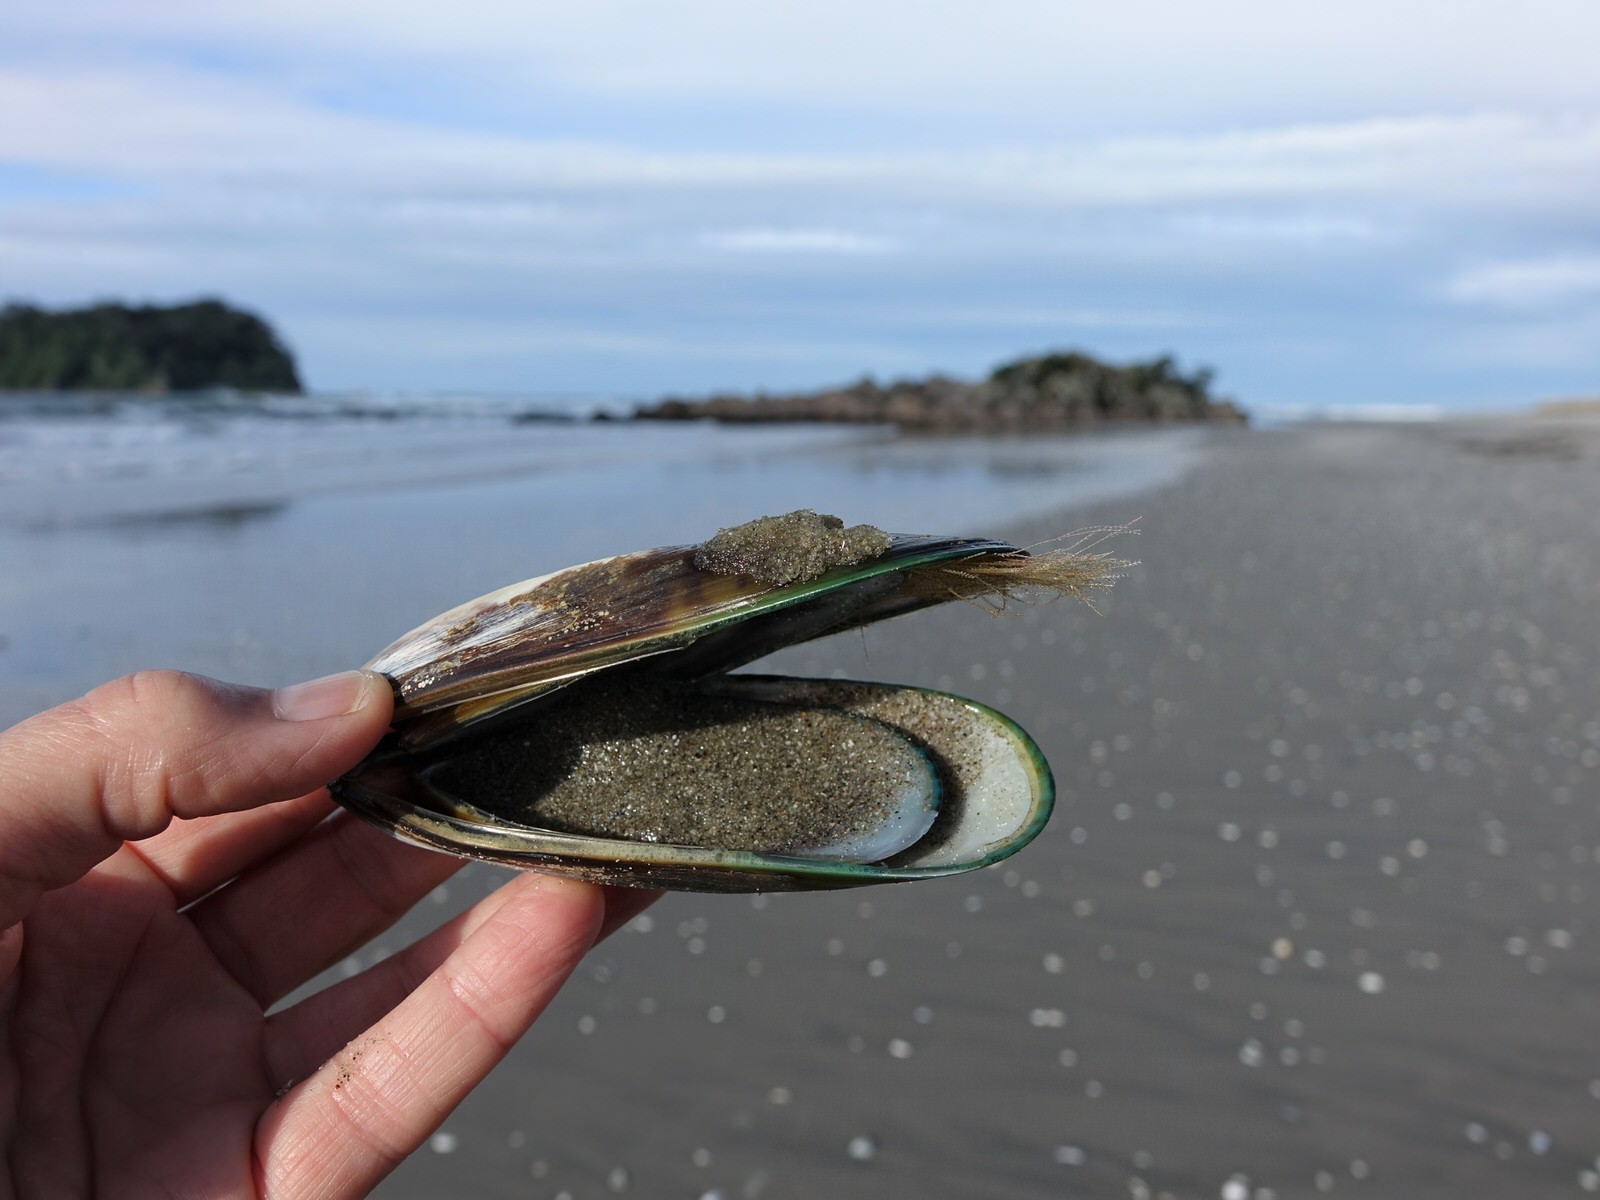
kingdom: Animalia
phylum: Mollusca
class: Bivalvia
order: Mytilida
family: Mytilidae
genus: Perna
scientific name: Perna canaliculus
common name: New zealand greenshelltm
